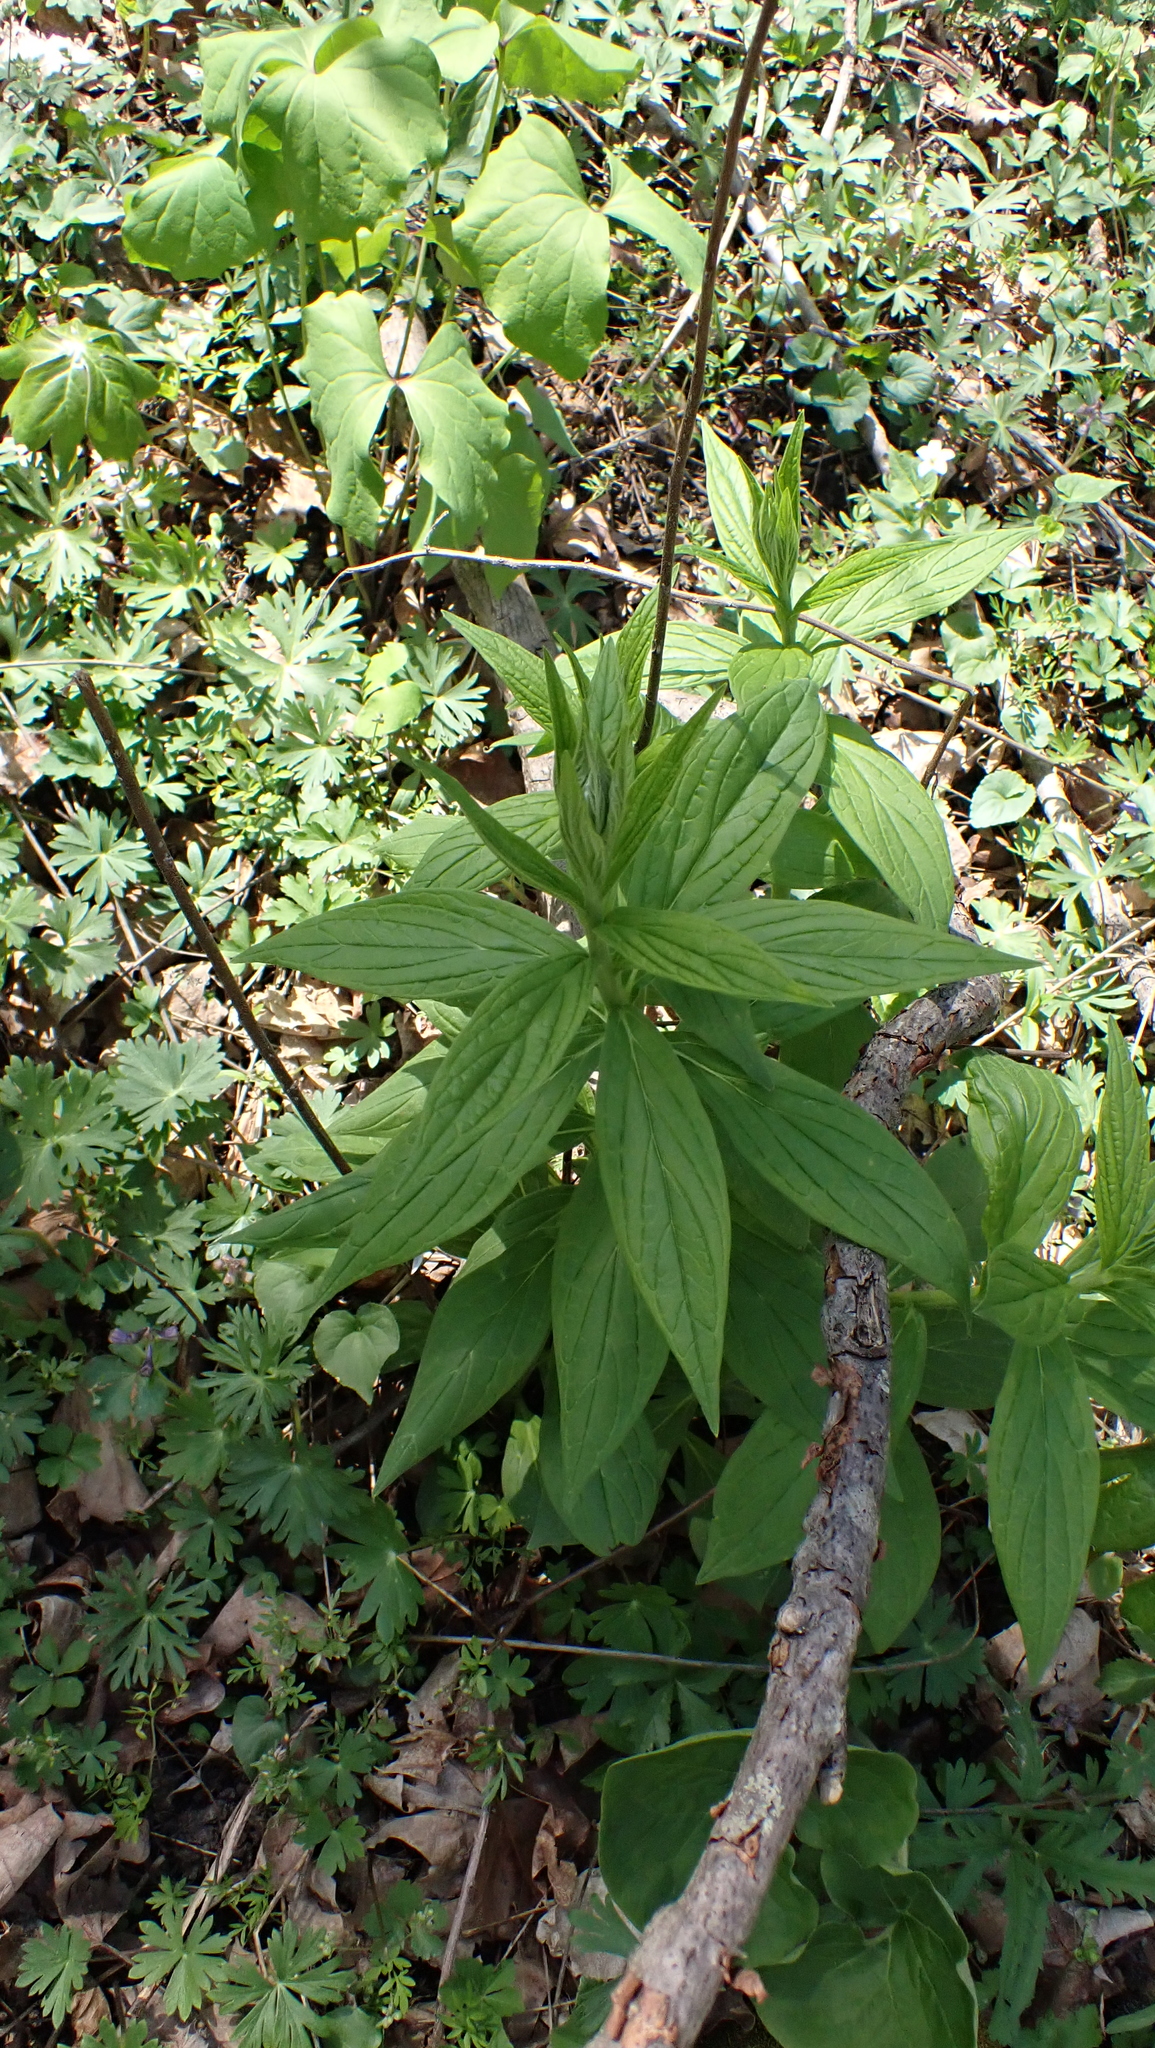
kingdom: Plantae
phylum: Tracheophyta
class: Magnoliopsida
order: Boraginales
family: Boraginaceae
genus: Lithospermum
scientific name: Lithospermum latifolium
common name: American gromwell
